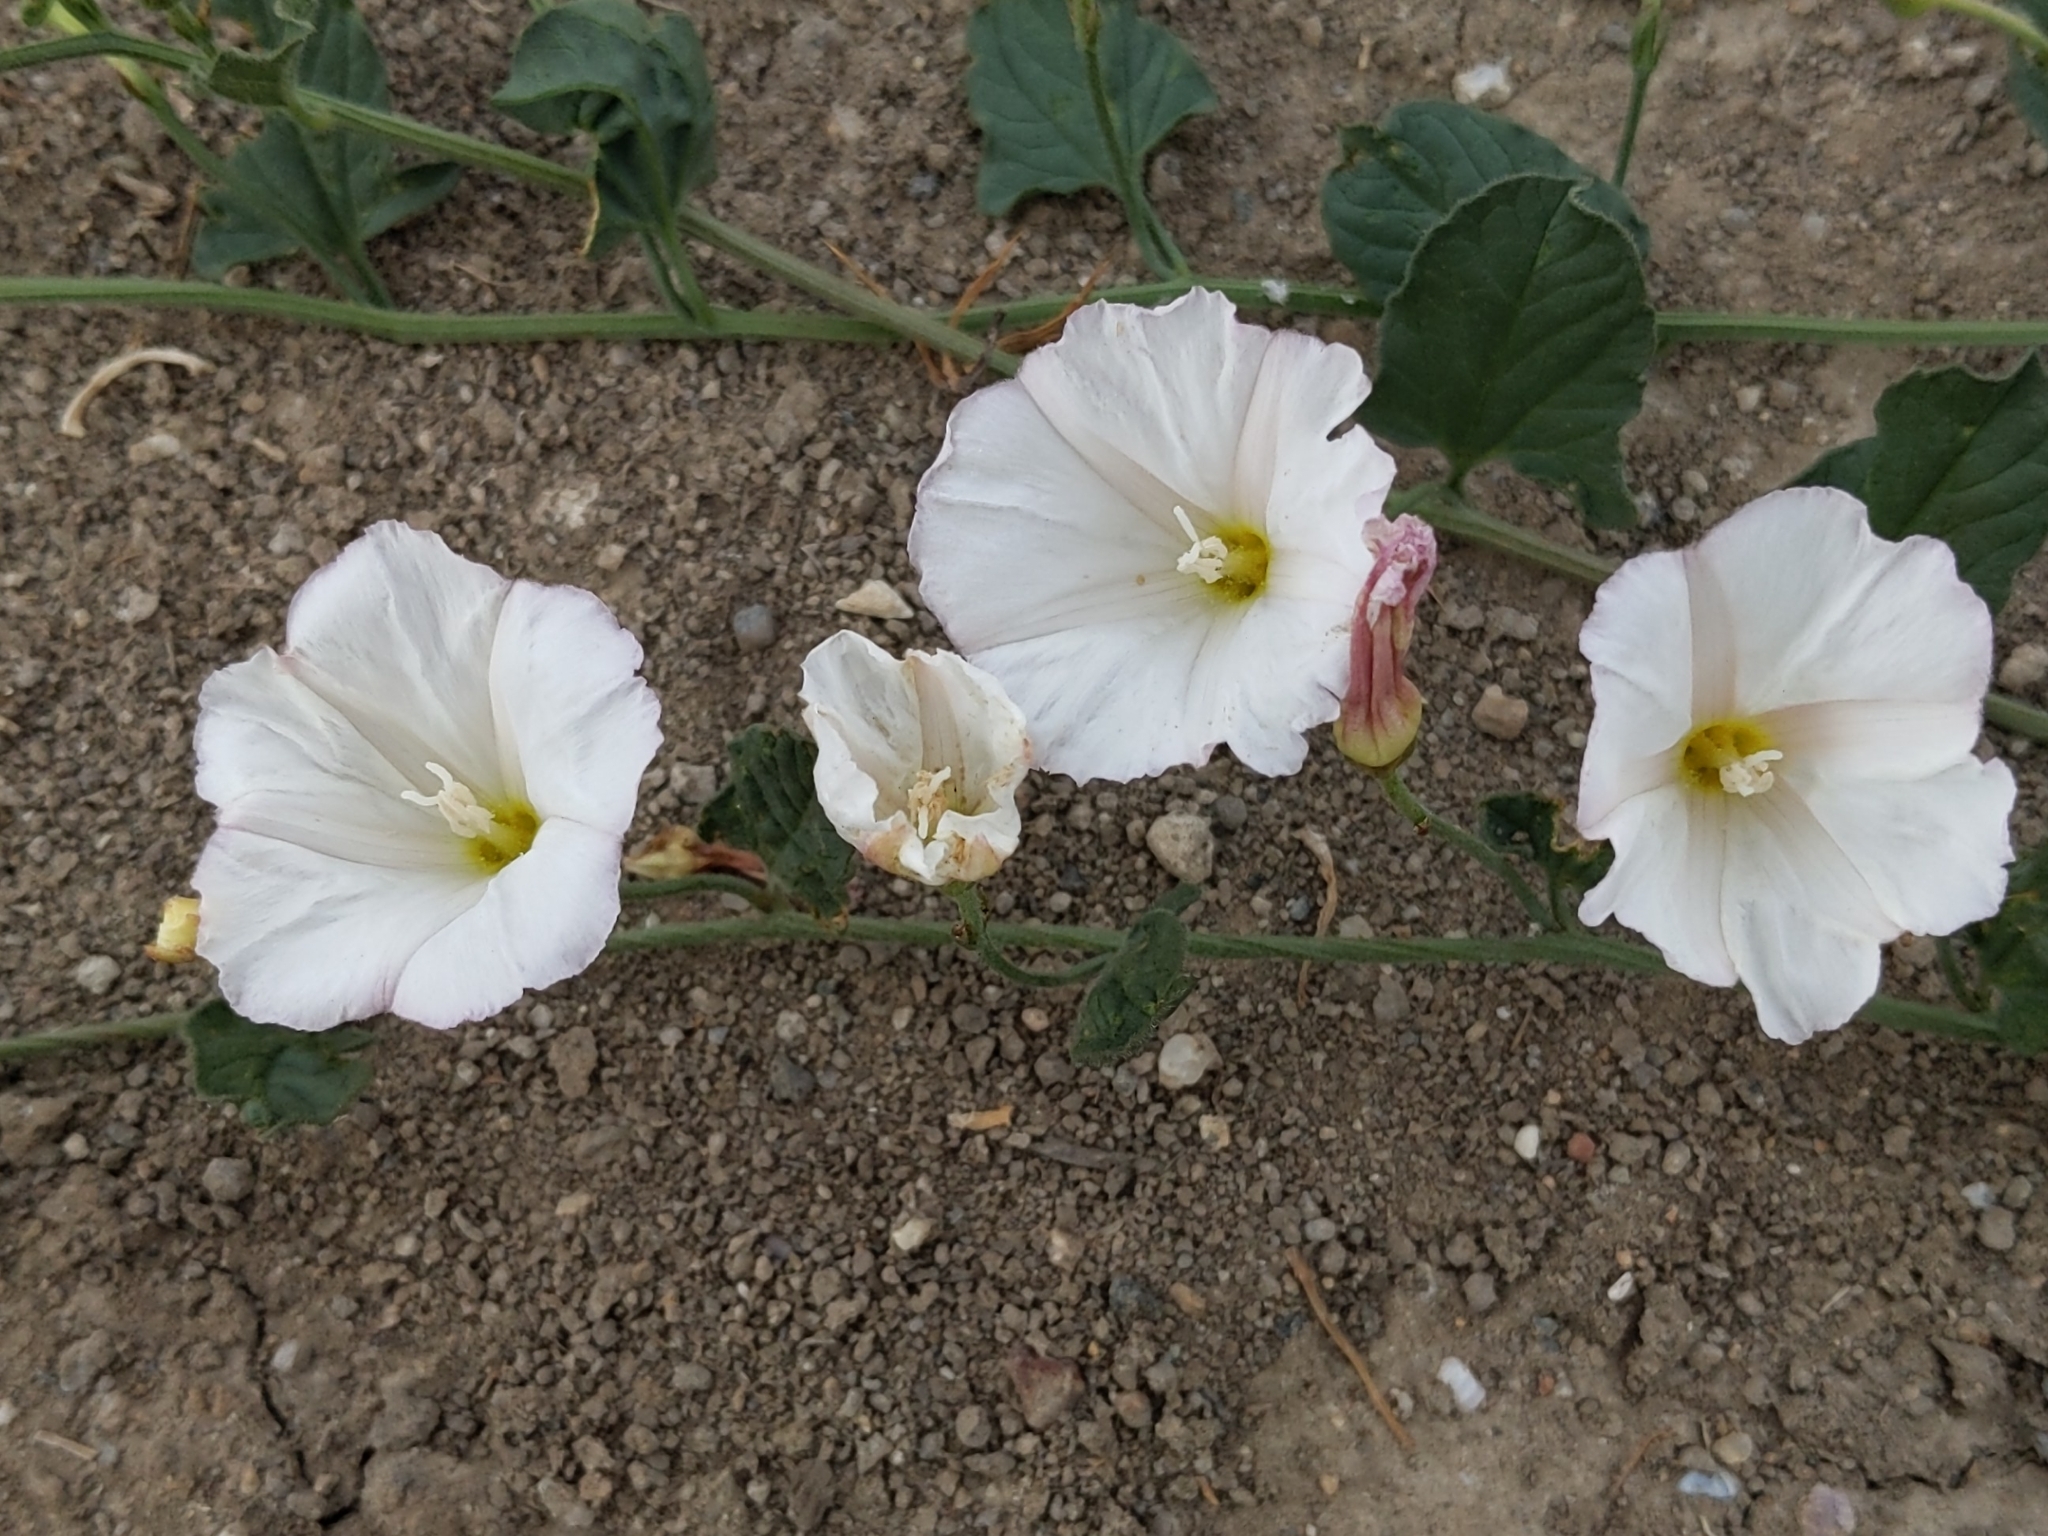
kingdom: Plantae
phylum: Tracheophyta
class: Magnoliopsida
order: Solanales
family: Convolvulaceae
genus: Convolvulus
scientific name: Convolvulus arvensis
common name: Field bindweed
